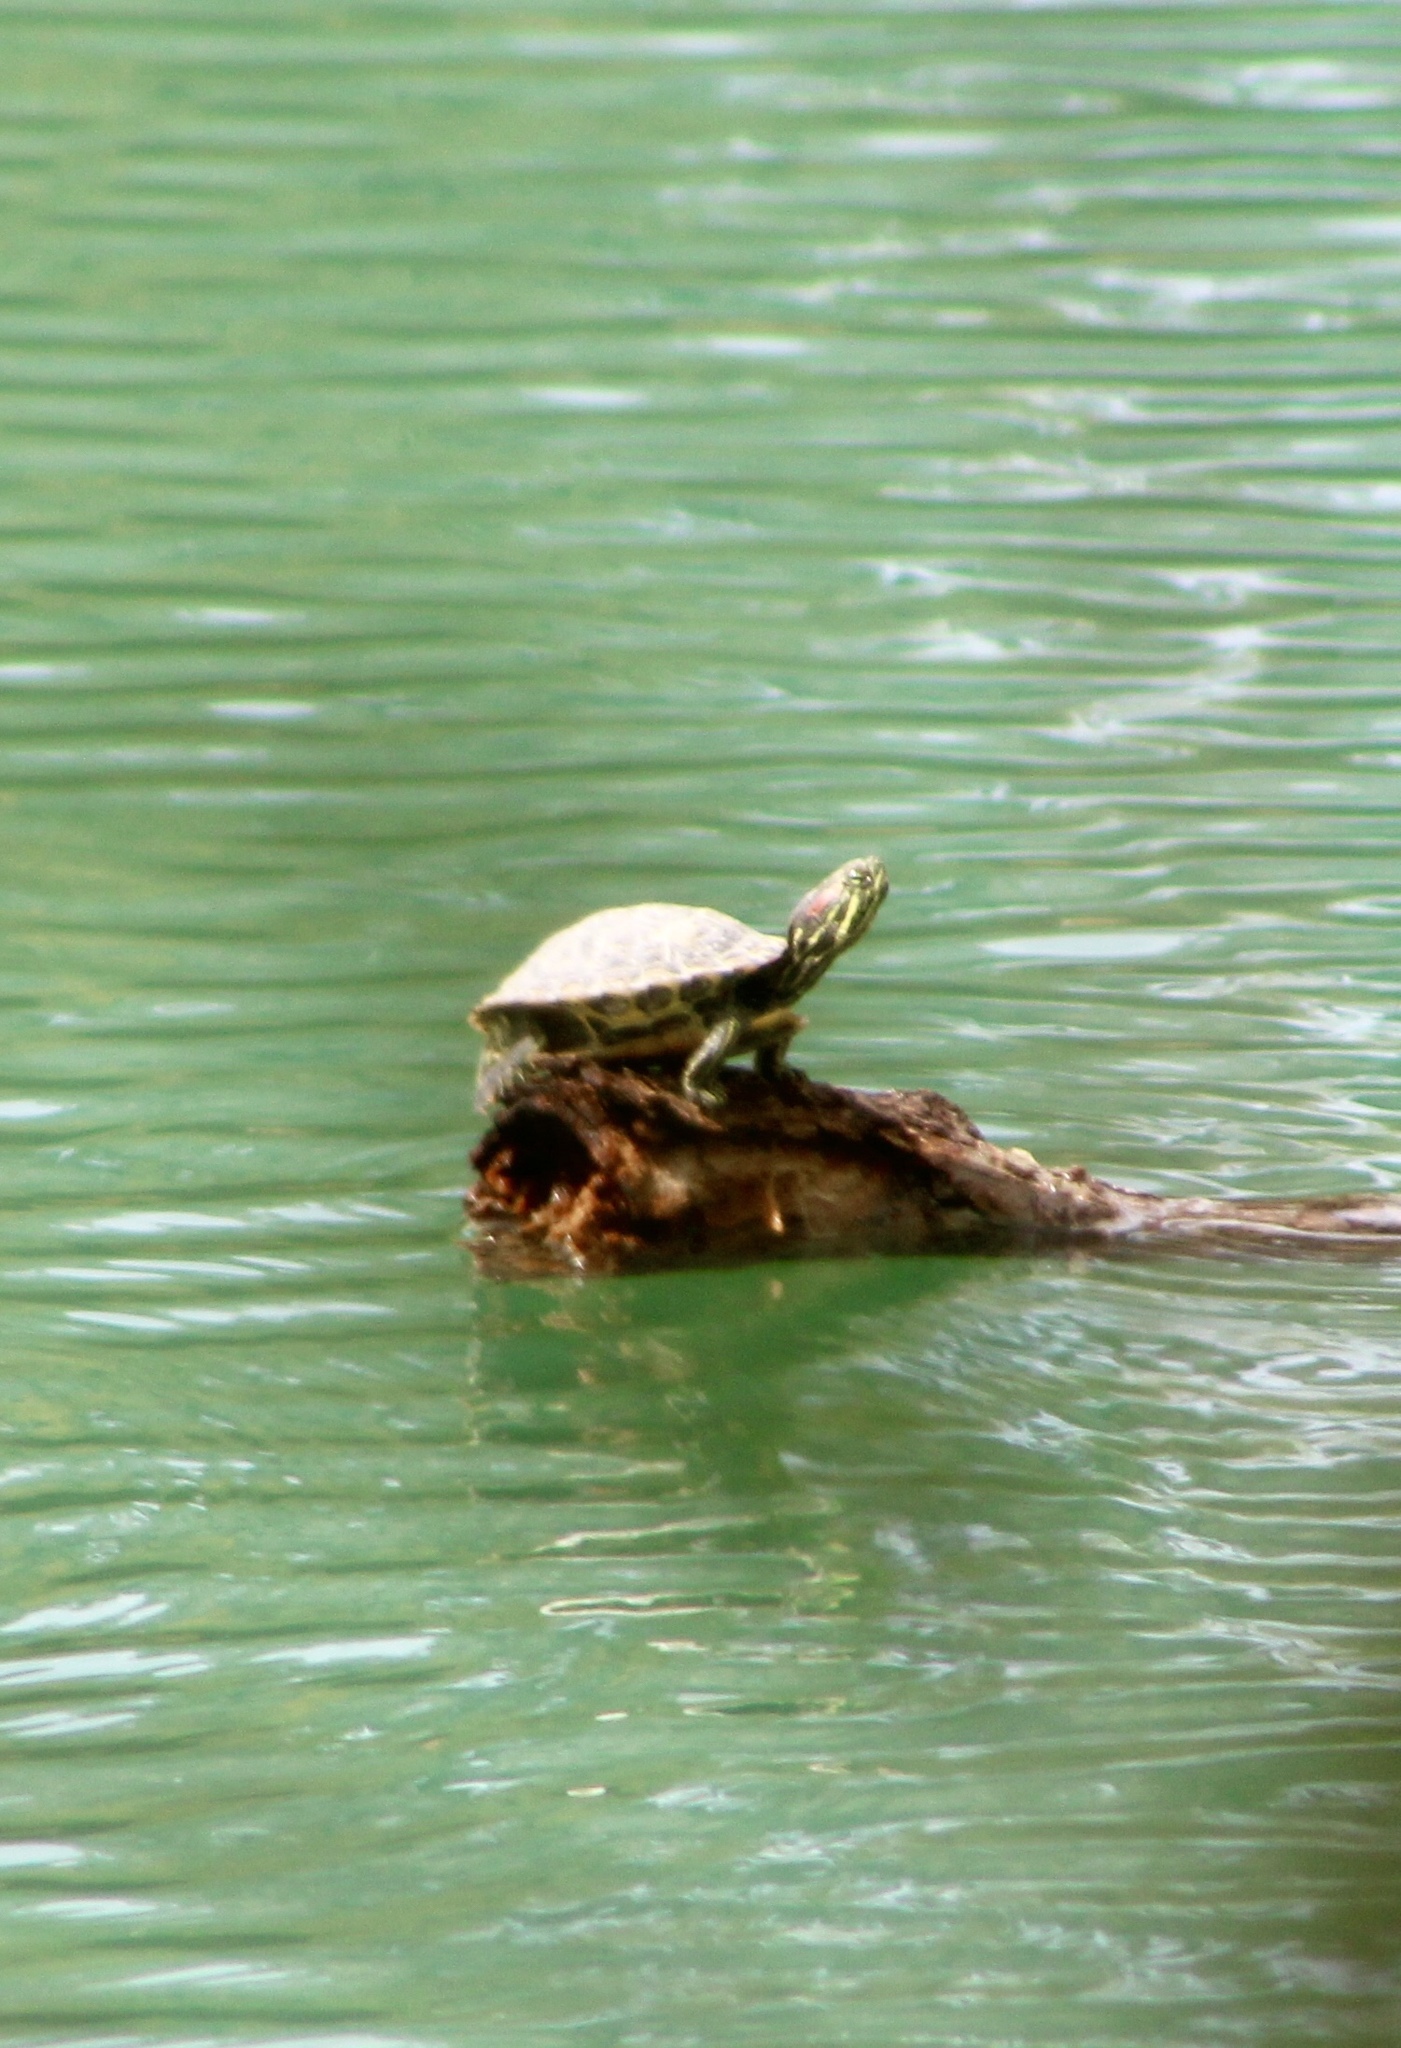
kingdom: Animalia
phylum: Chordata
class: Testudines
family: Emydidae
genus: Trachemys
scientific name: Trachemys scripta
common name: Slider
